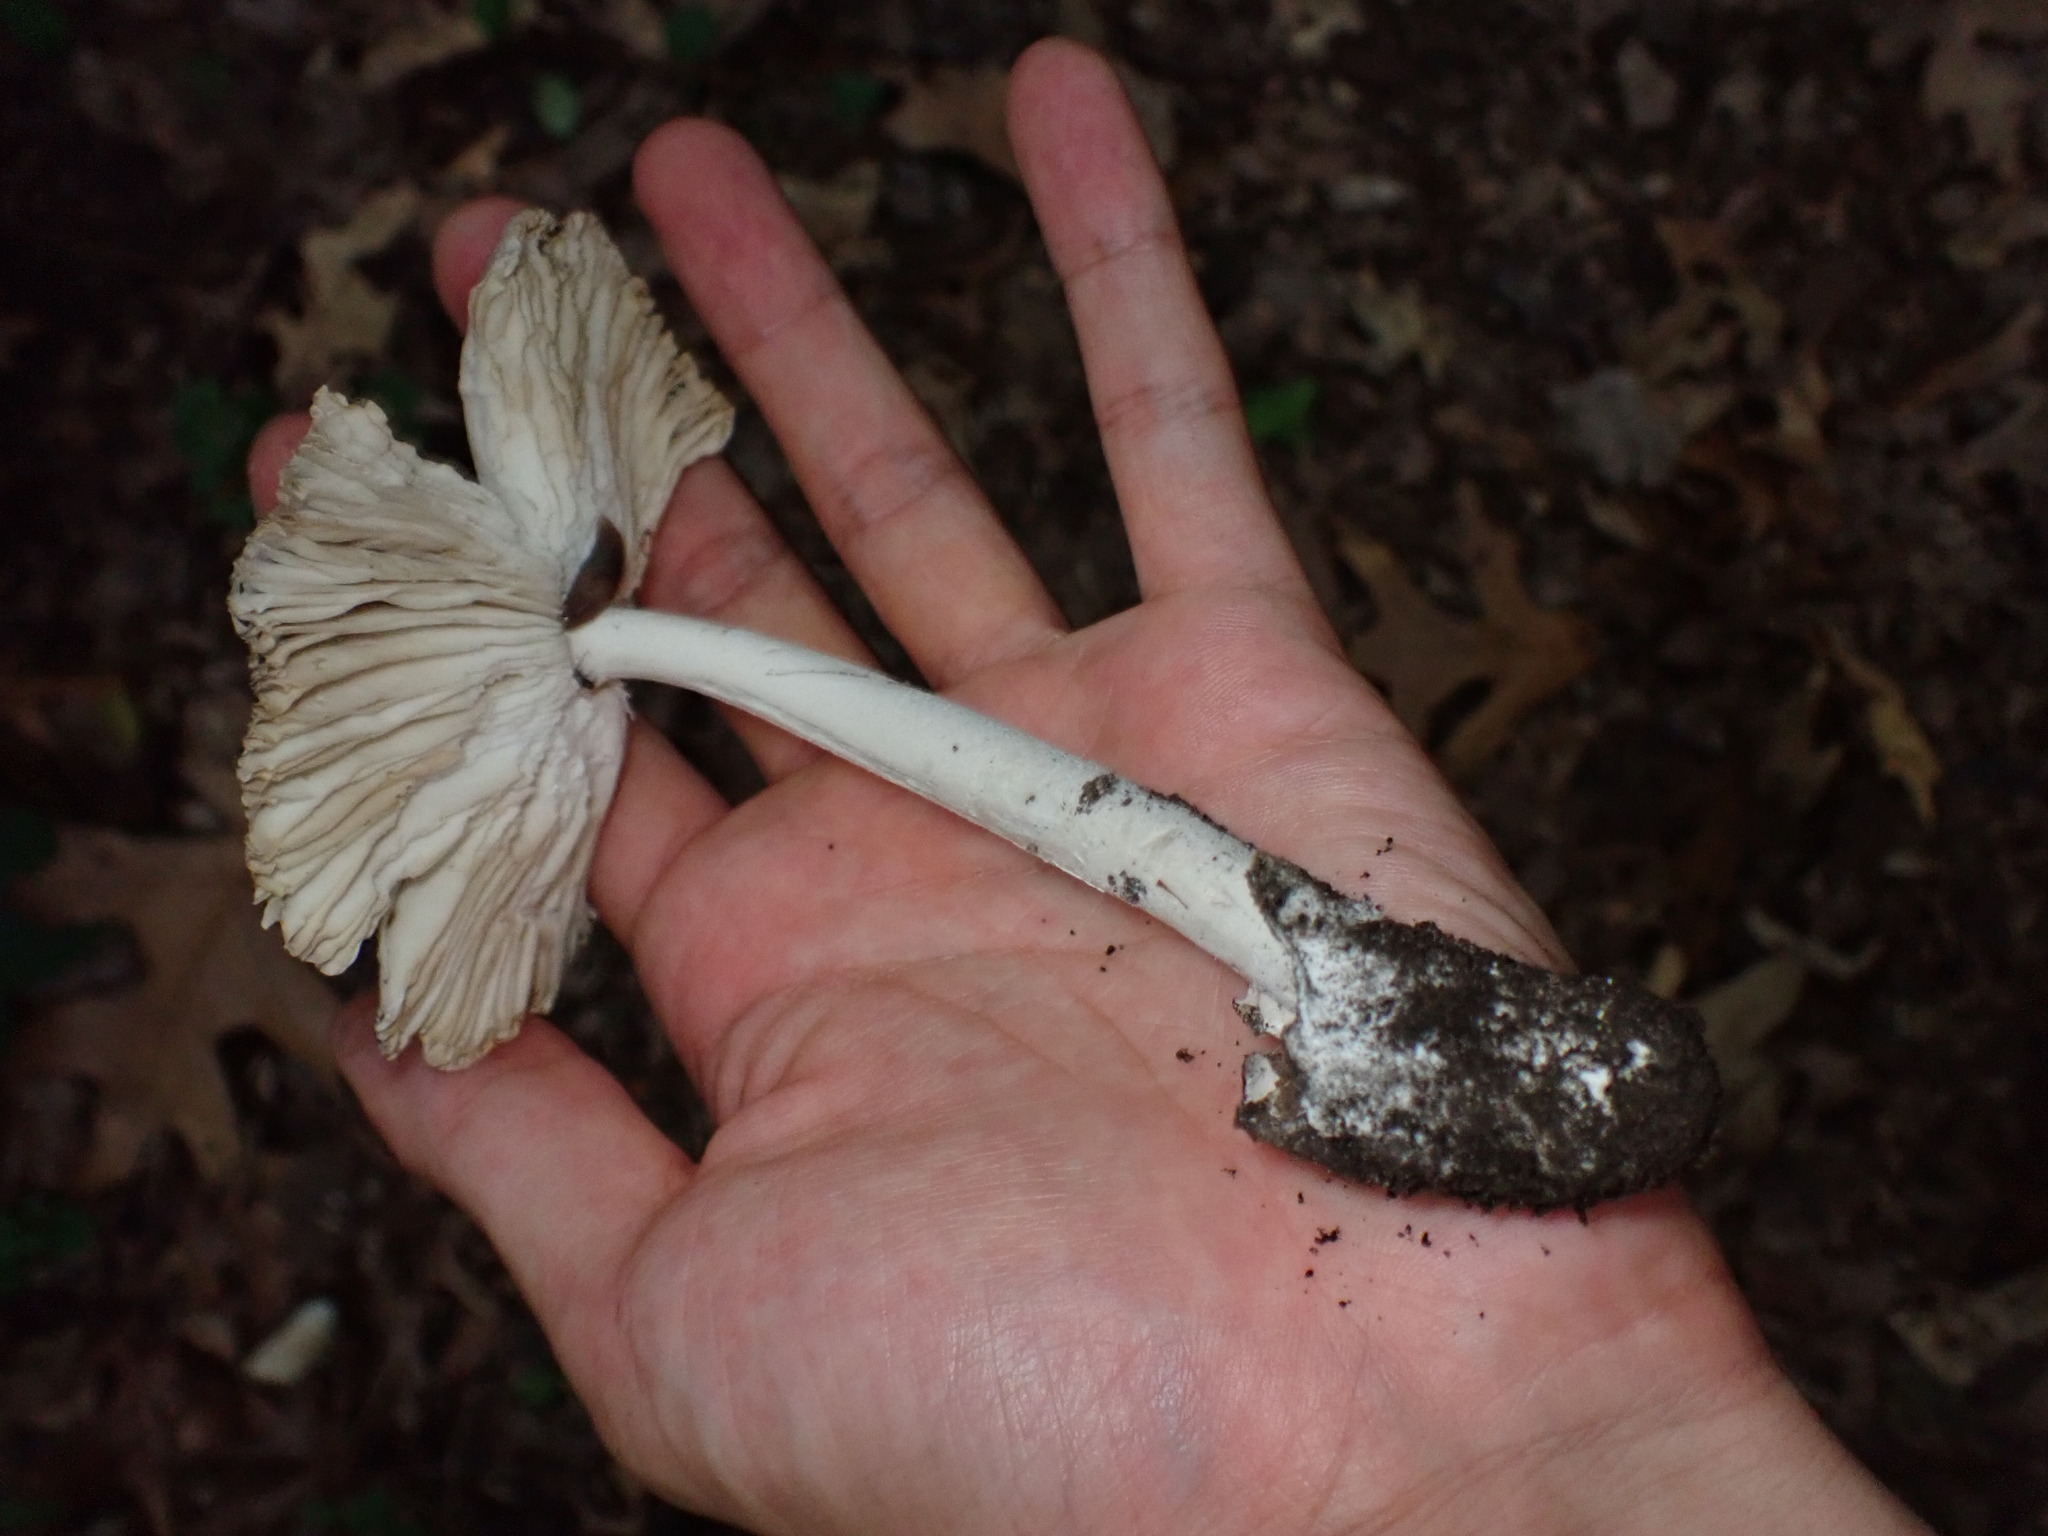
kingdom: Fungi
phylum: Basidiomycota
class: Agaricomycetes
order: Agaricales
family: Amanitaceae
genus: Amanita
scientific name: Amanita vaginata
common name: Grisette
